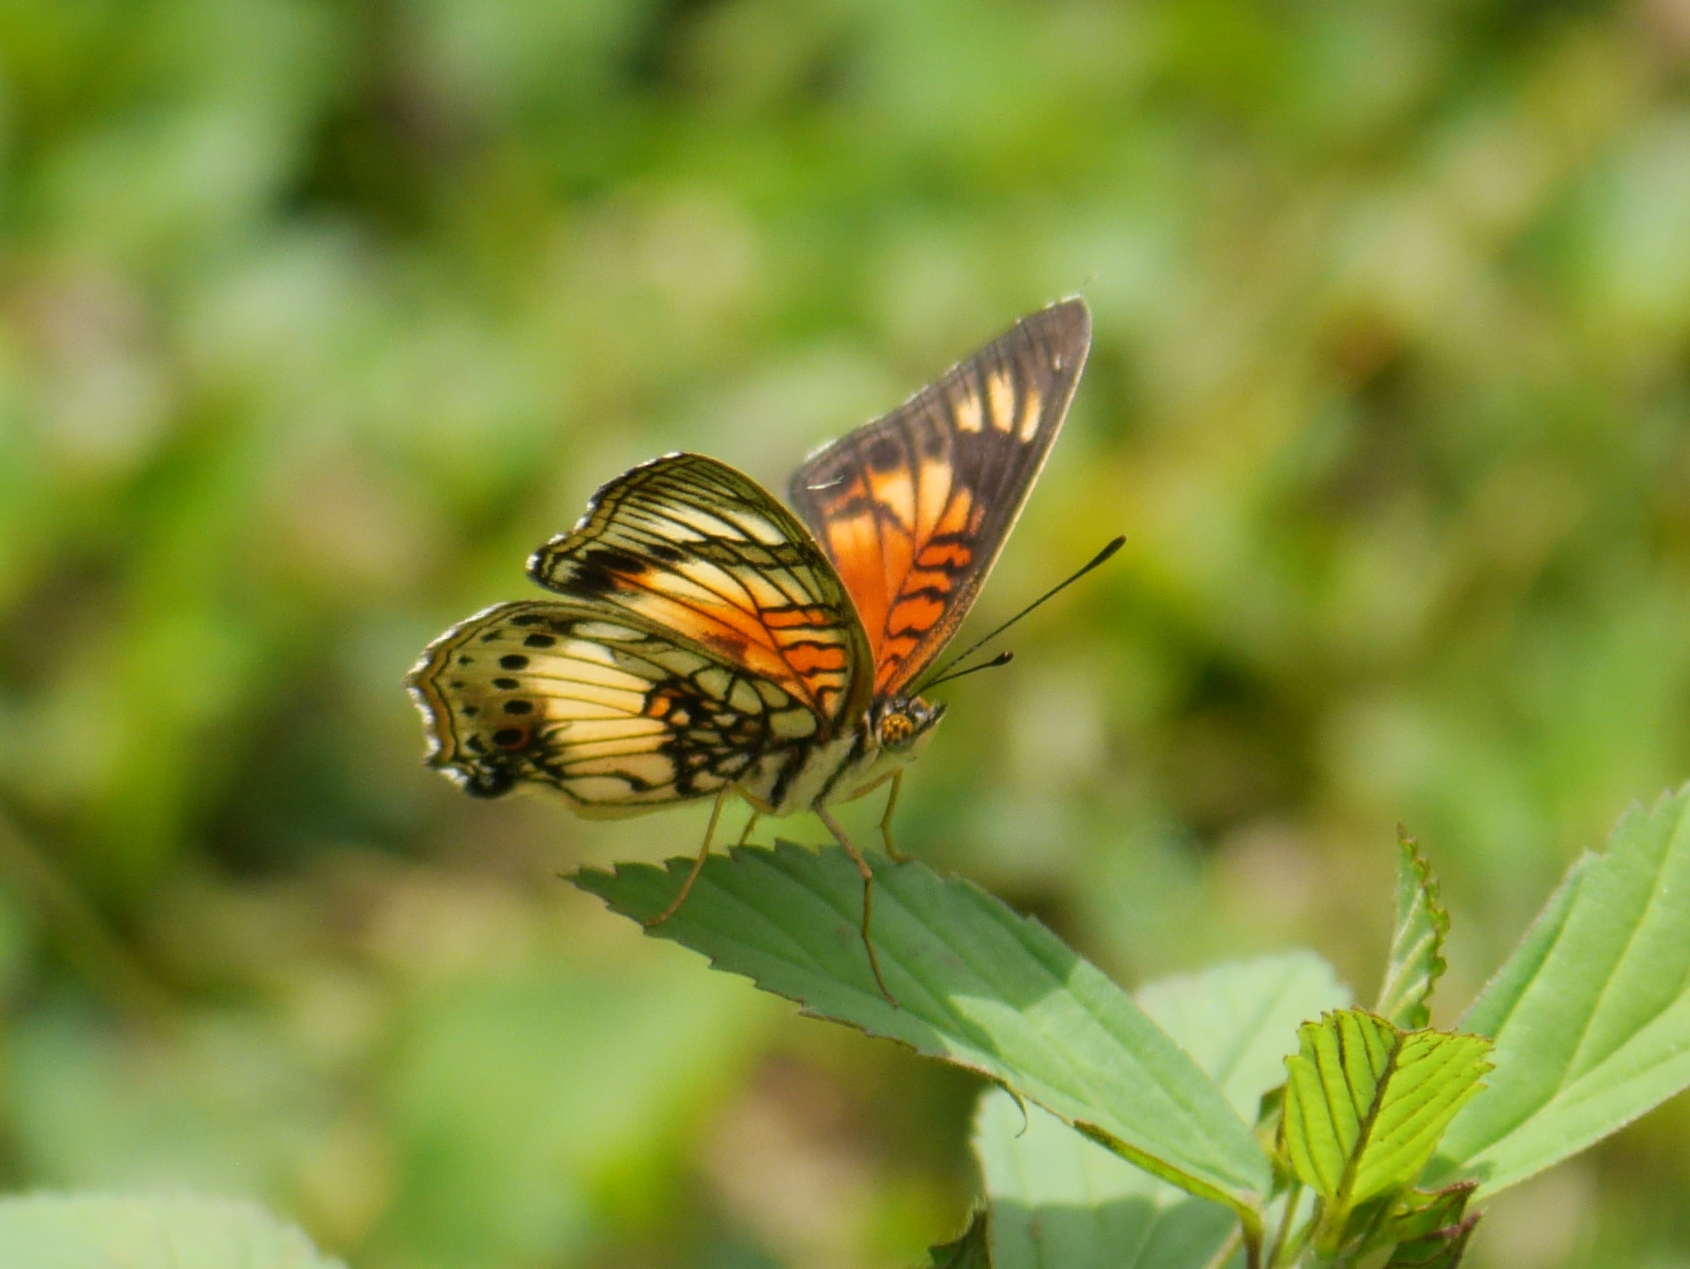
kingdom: Animalia
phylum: Arthropoda
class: Insecta
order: Lepidoptera
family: Nymphalidae
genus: Junonia
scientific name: Junonia sophia
